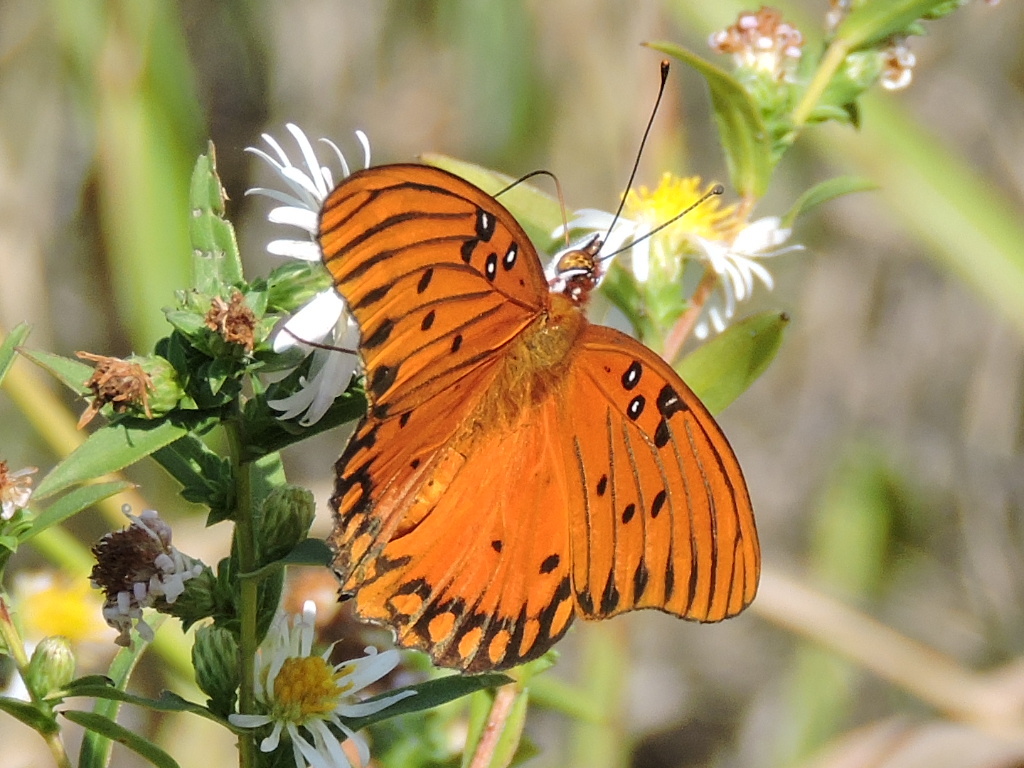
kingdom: Animalia
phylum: Arthropoda
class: Insecta
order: Lepidoptera
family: Nymphalidae
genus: Dione
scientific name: Dione vanillae
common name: Gulf fritillary
